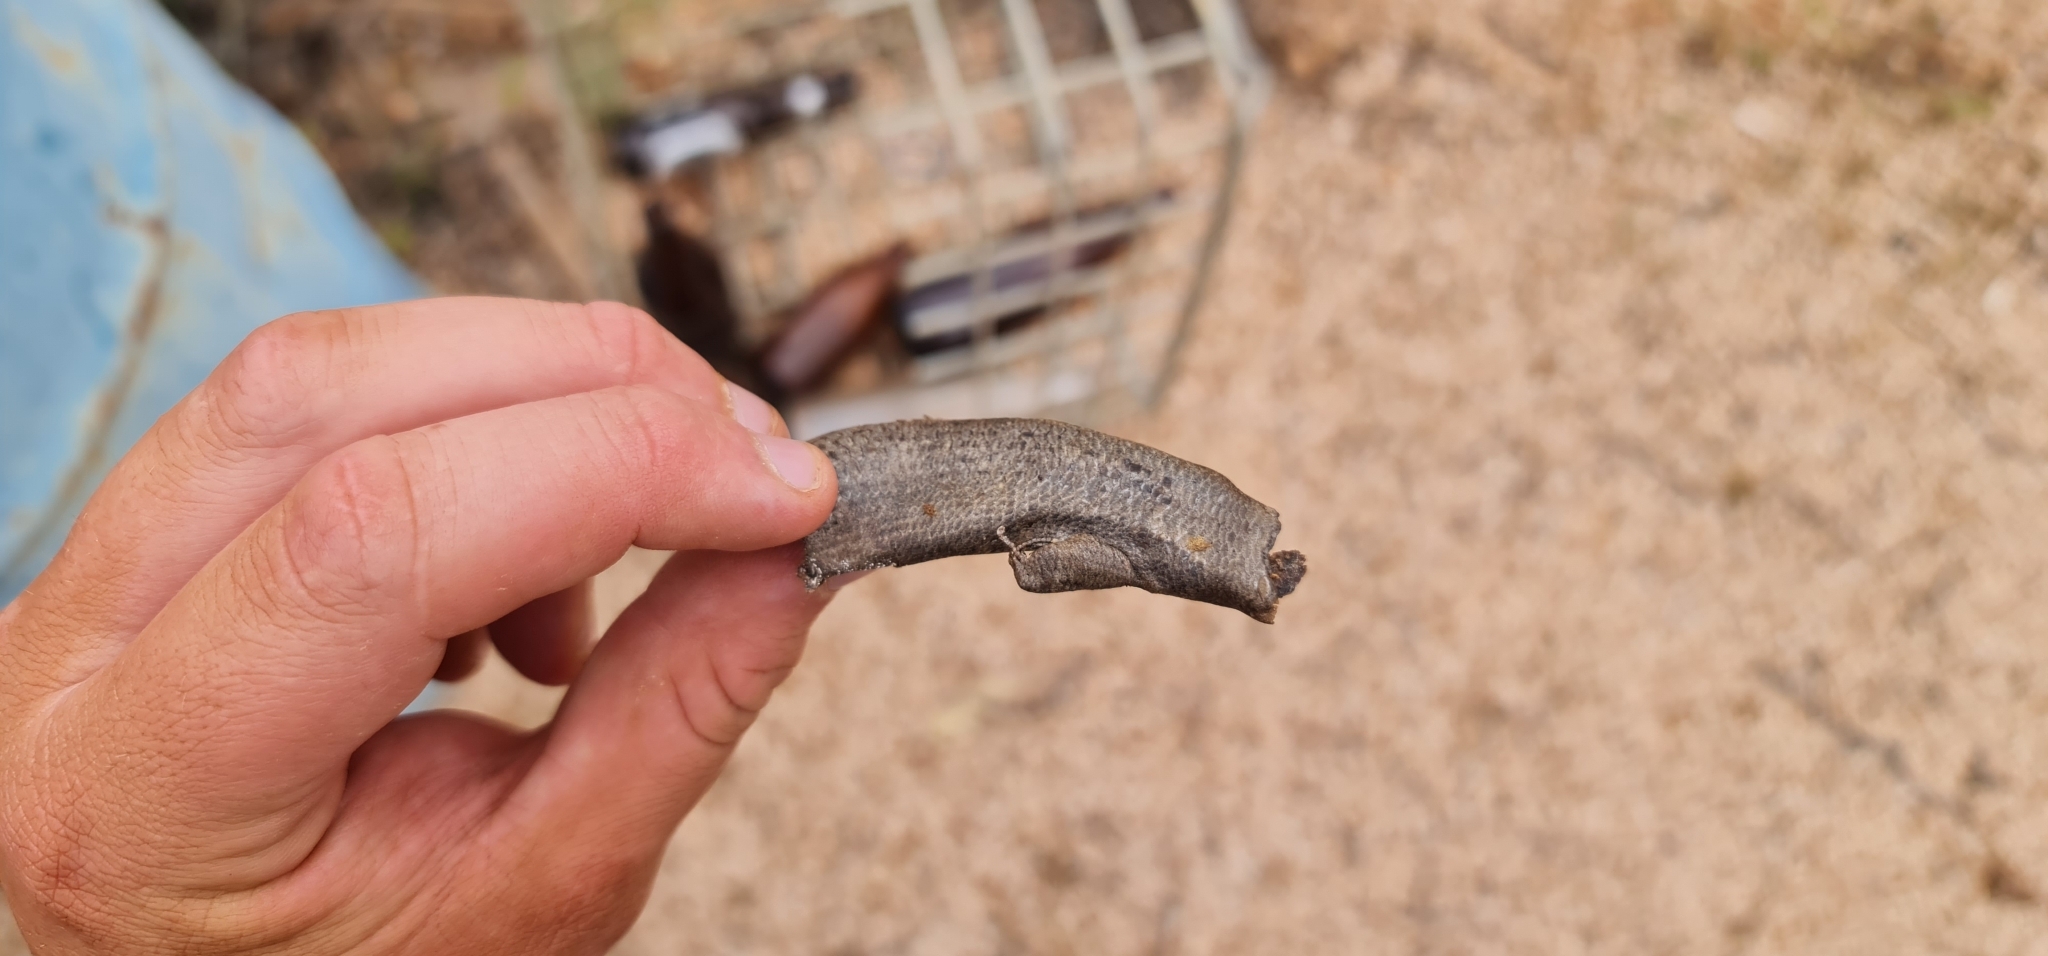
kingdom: Animalia
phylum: Chordata
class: Squamata
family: Scincidae
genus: Egernia
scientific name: Egernia striolata
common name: Tree skink
